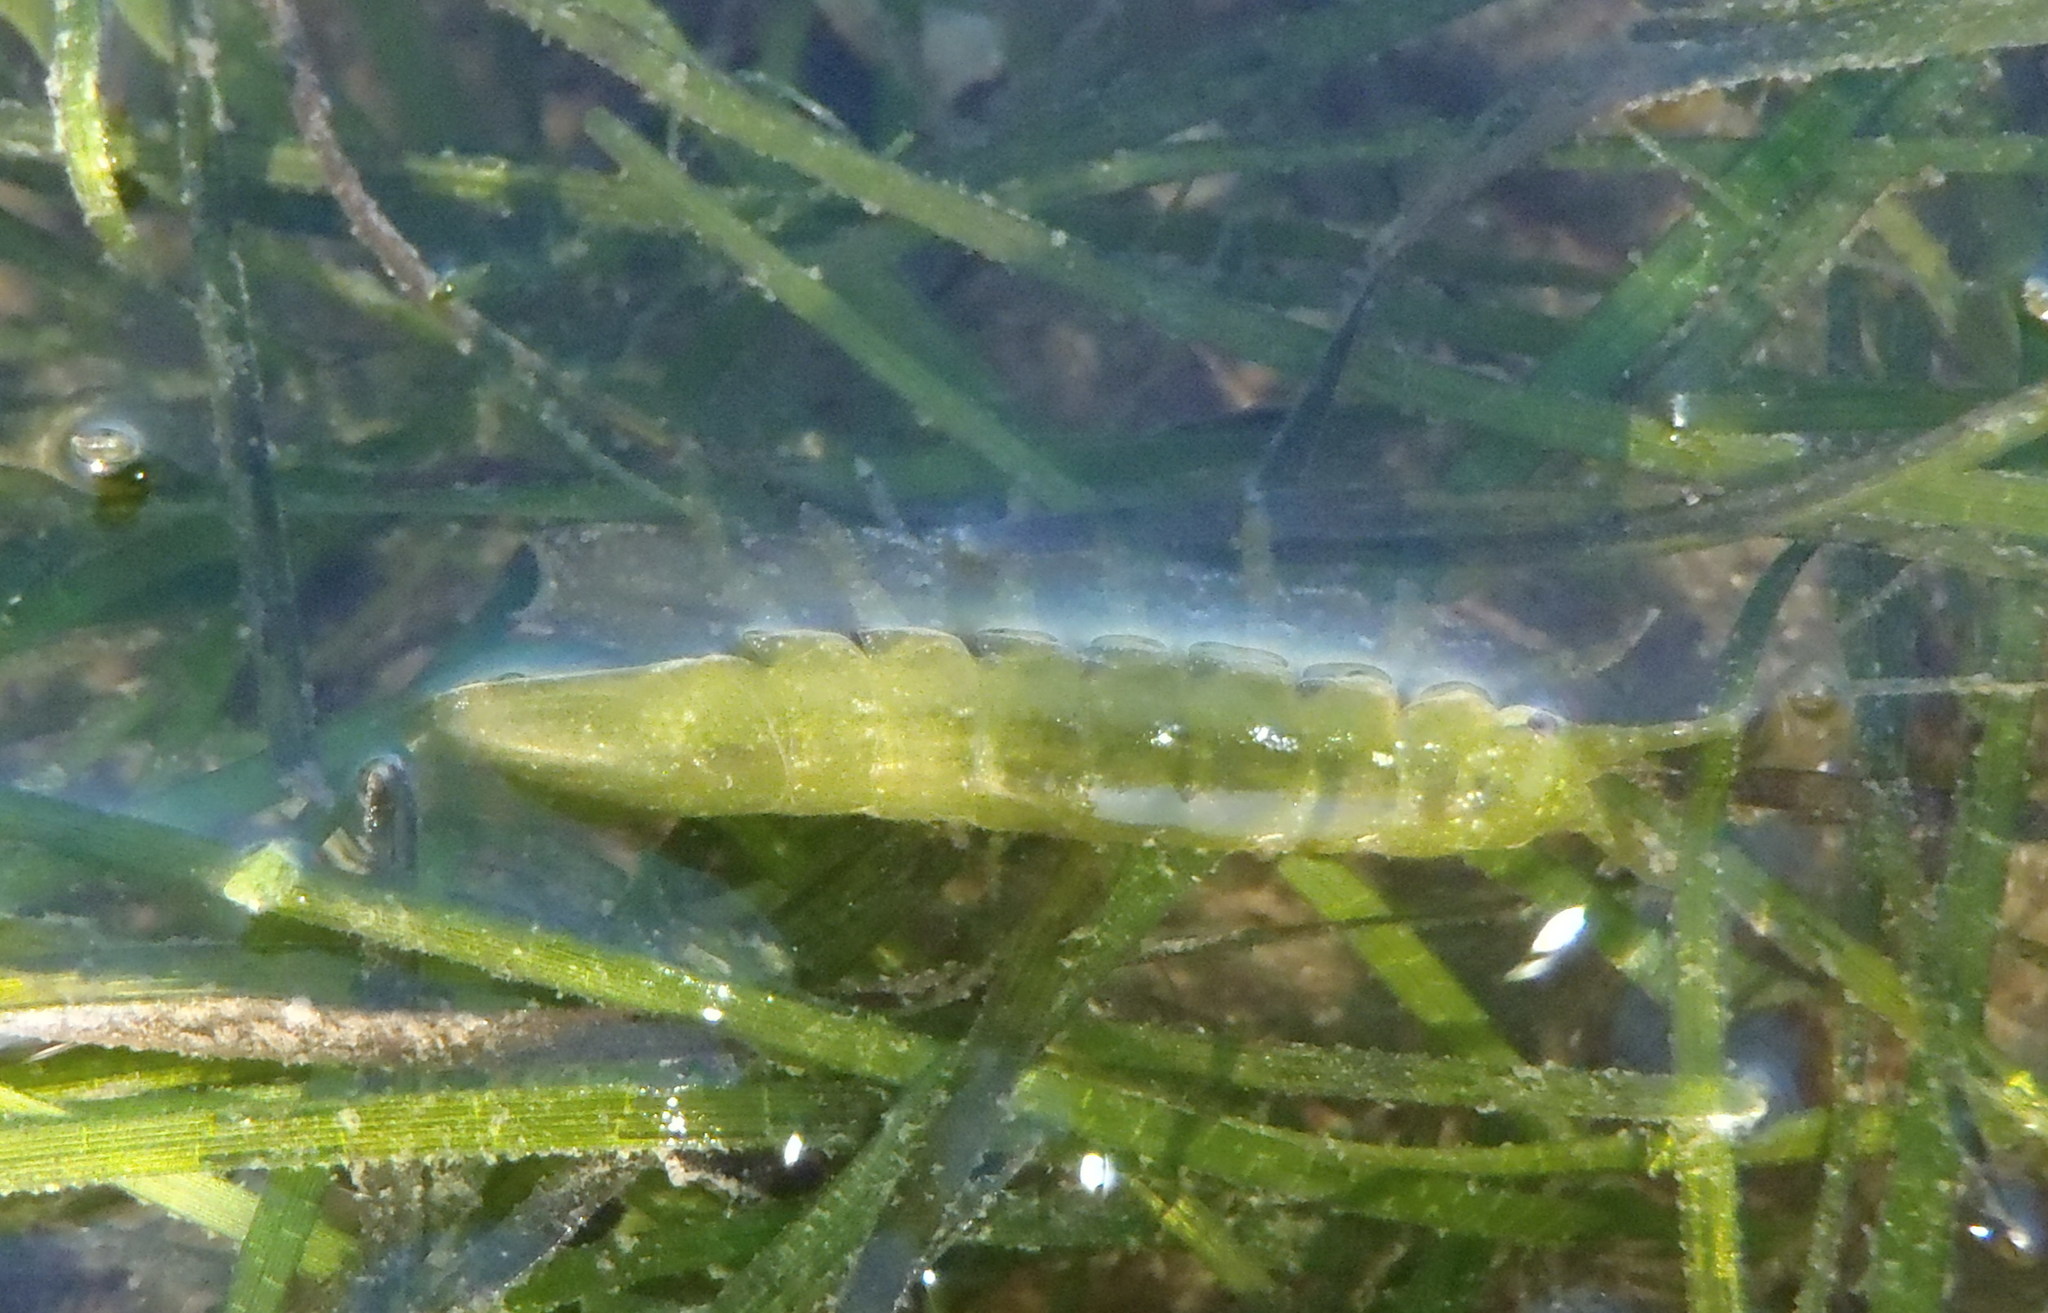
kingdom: Animalia
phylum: Arthropoda
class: Malacostraca
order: Isopoda
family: Idoteidae
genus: Paridotea
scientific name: Paridotea ungulata
